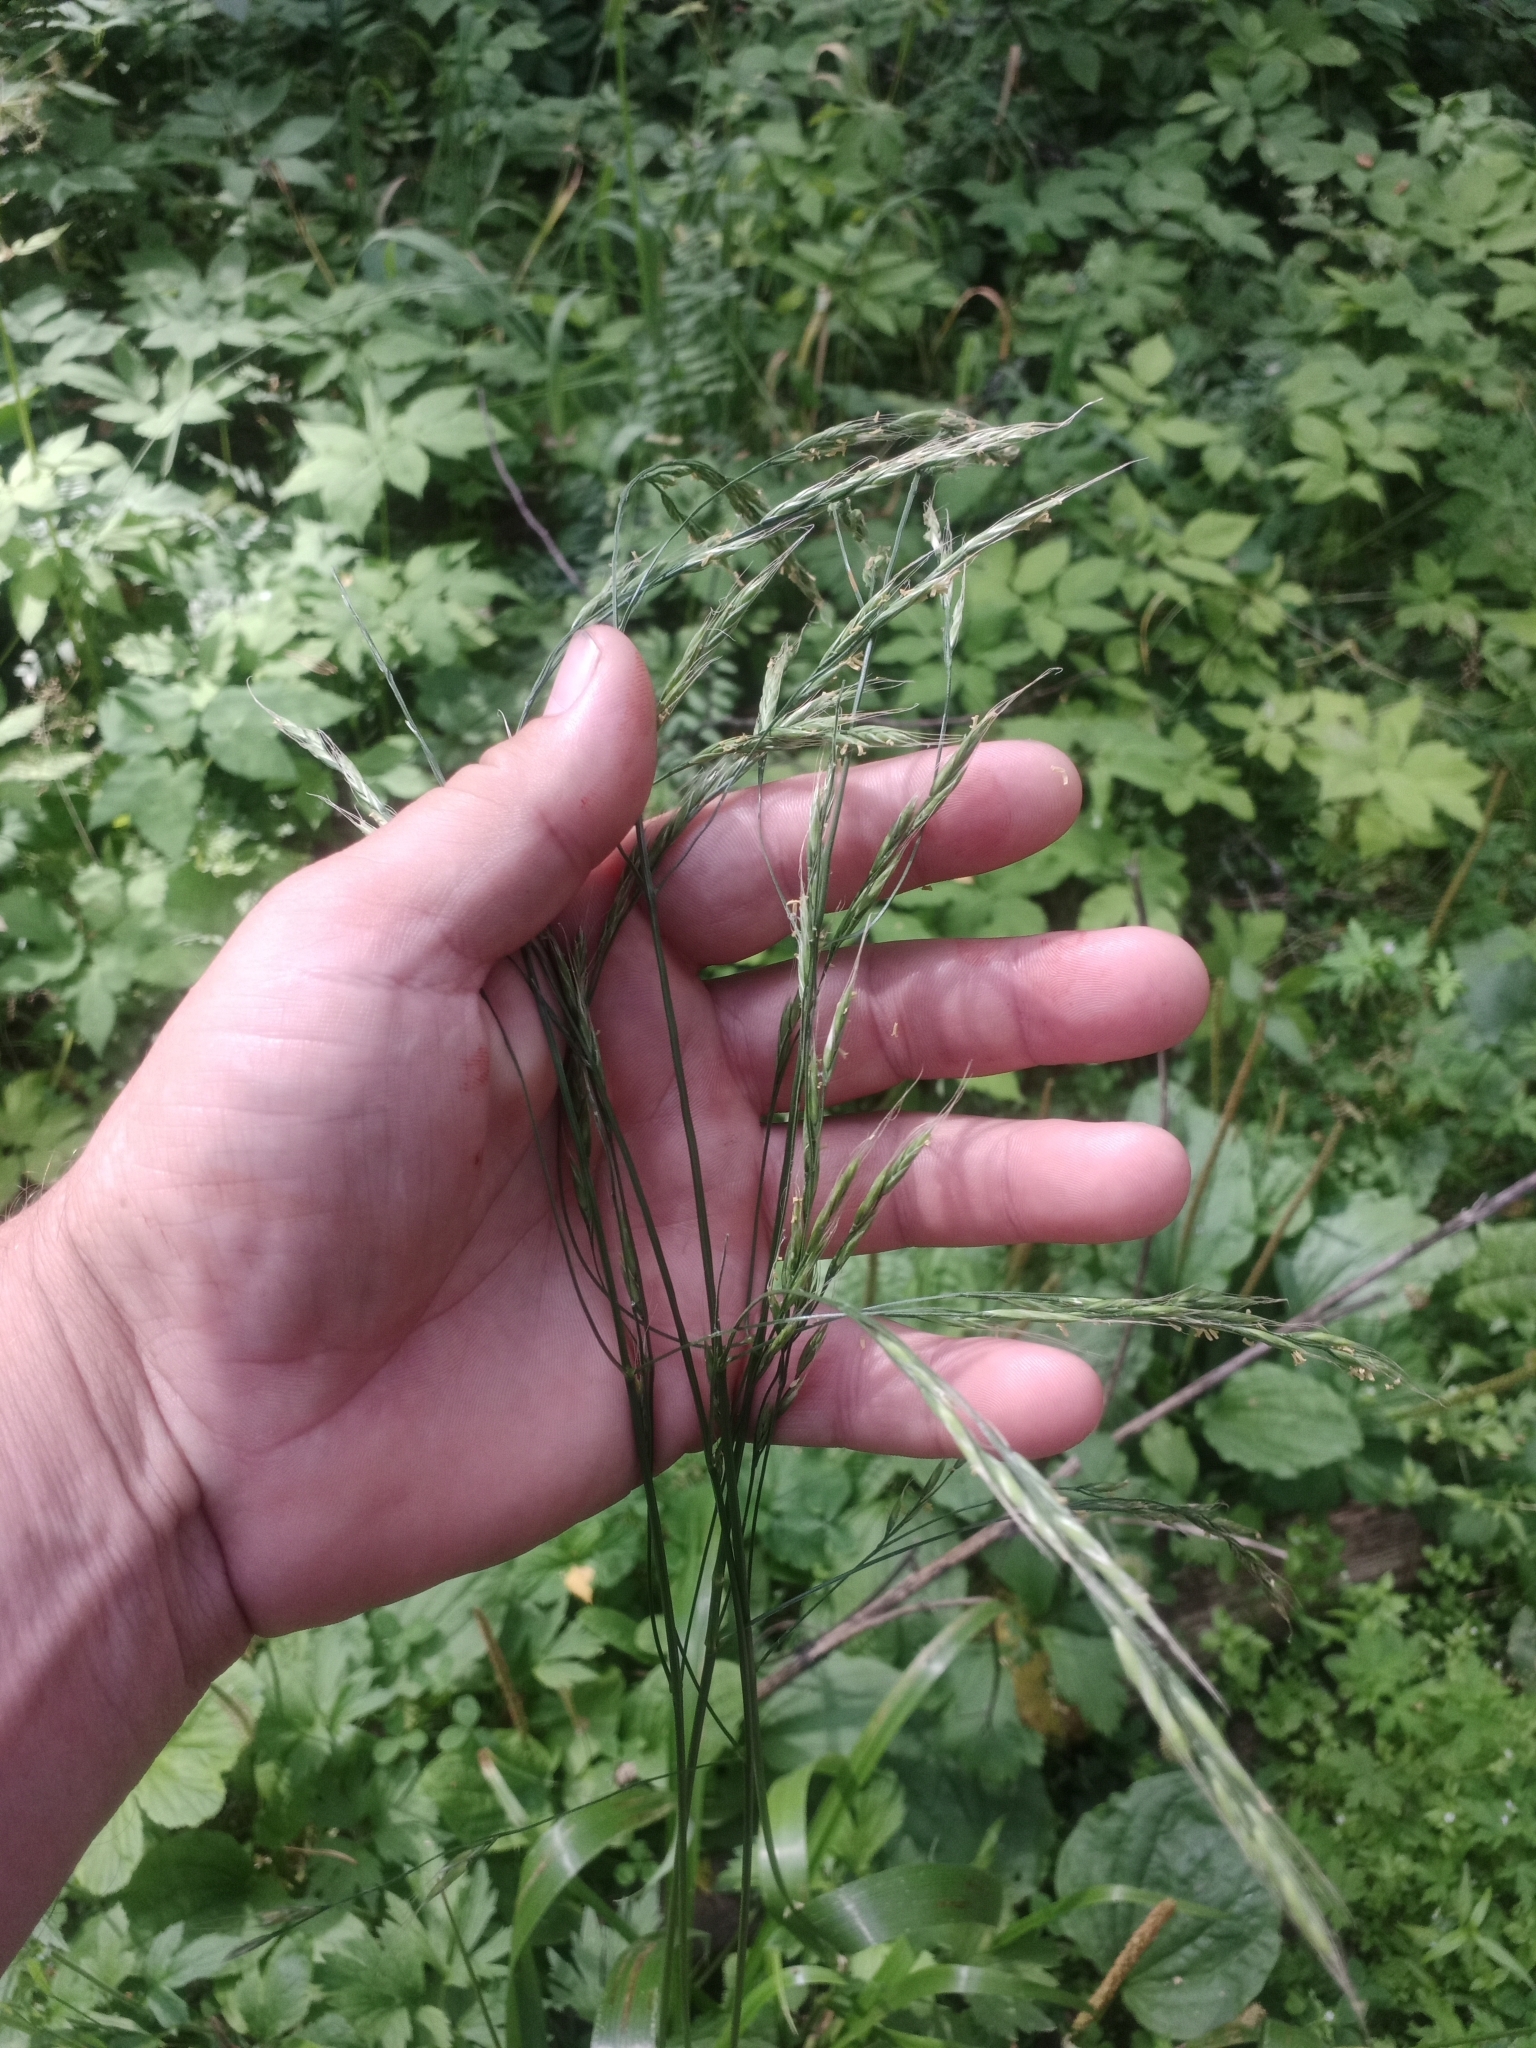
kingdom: Plantae
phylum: Tracheophyta
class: Liliopsida
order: Poales
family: Poaceae
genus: Lolium
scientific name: Lolium giganteum
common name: Giant fescue
